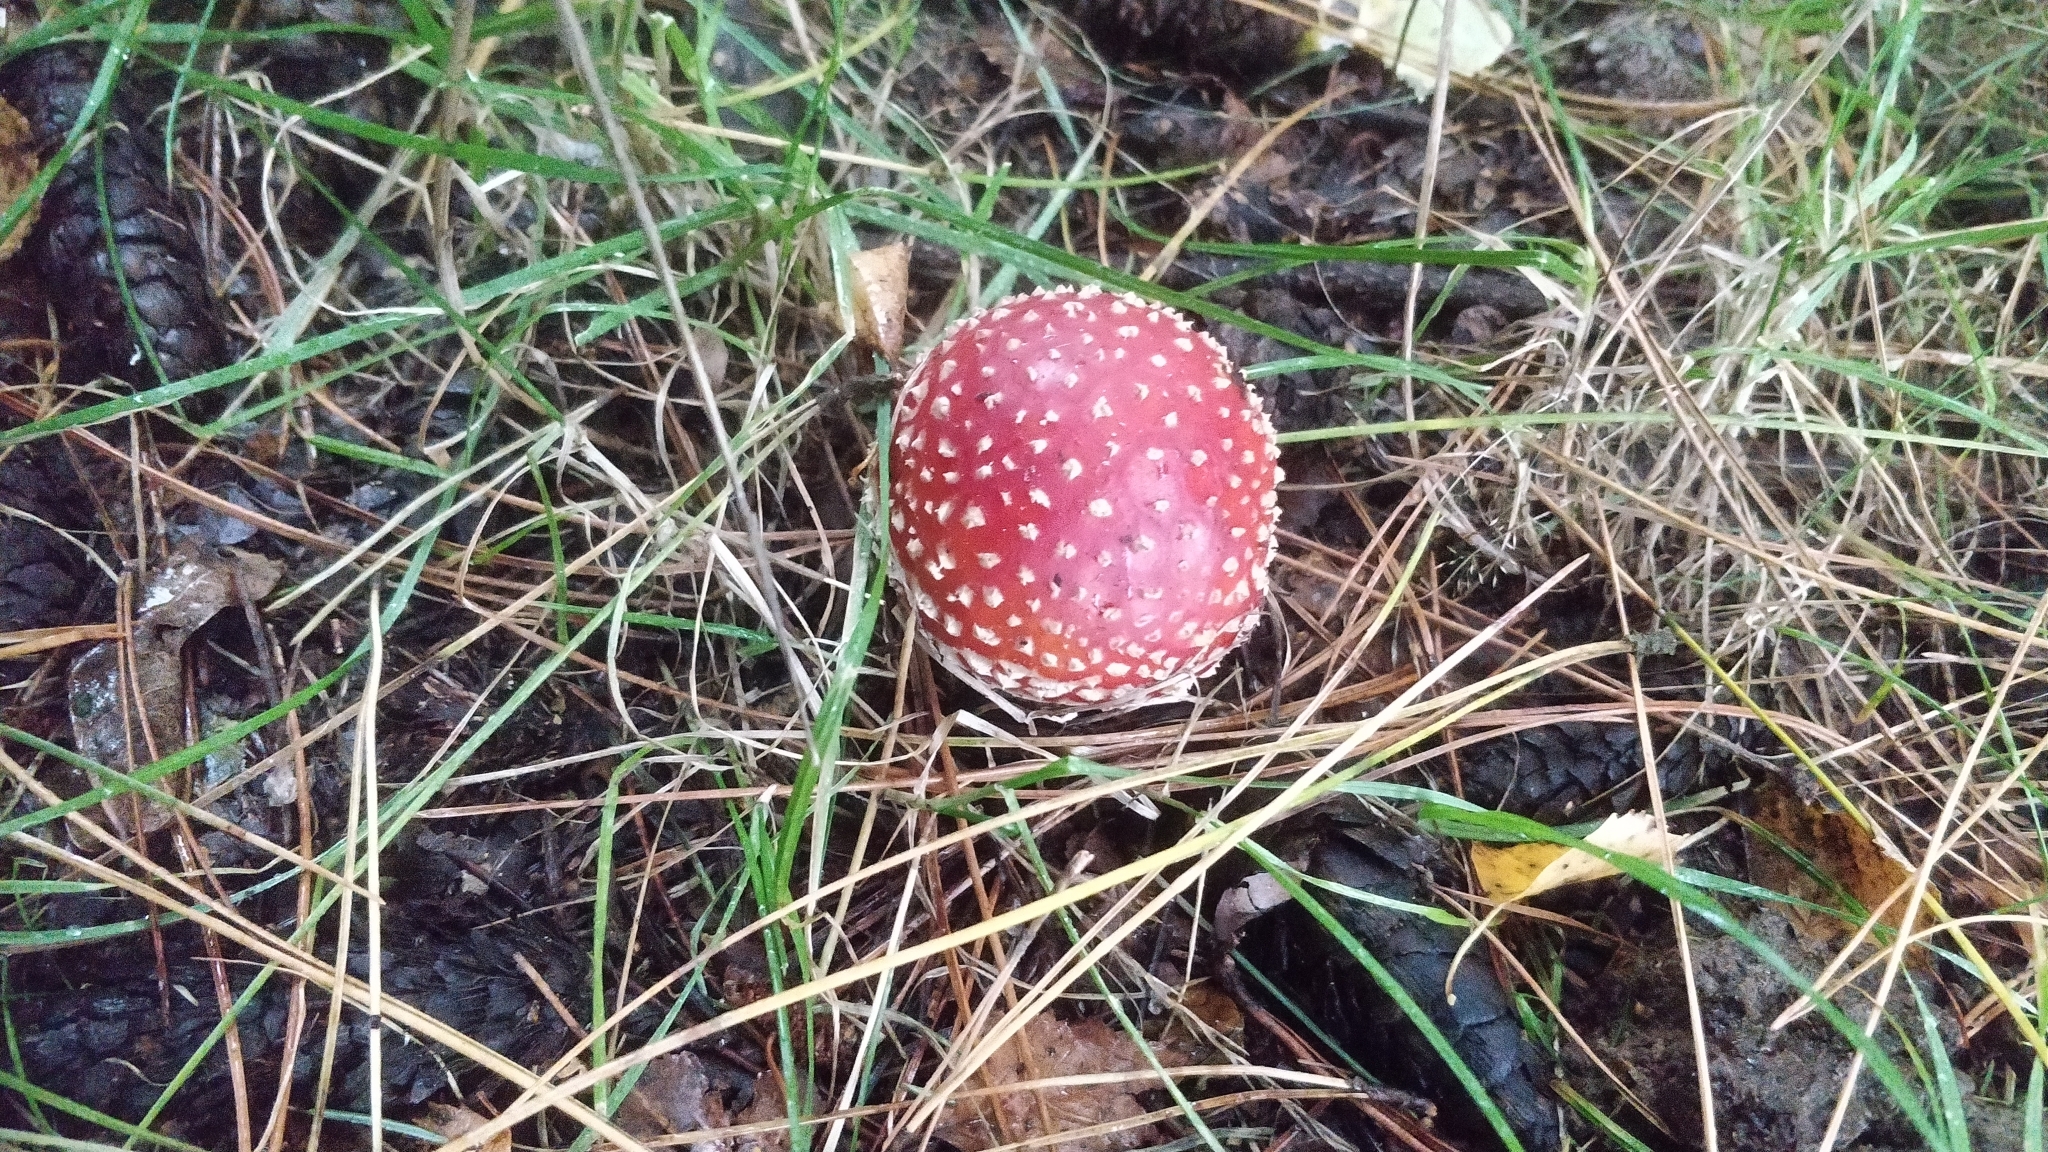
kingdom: Fungi
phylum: Basidiomycota
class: Agaricomycetes
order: Agaricales
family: Amanitaceae
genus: Amanita
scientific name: Amanita muscaria
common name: Fly agaric
